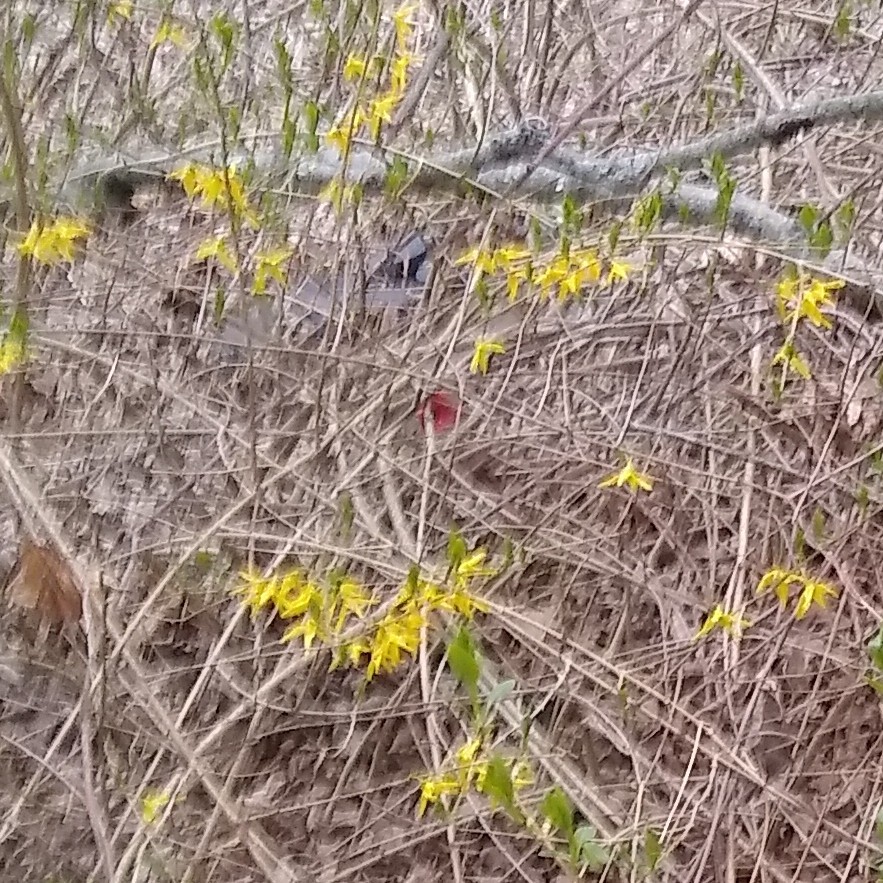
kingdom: Animalia
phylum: Chordata
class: Aves
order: Passeriformes
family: Cardinalidae
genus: Cardinalis
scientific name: Cardinalis cardinalis
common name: Northern cardinal
